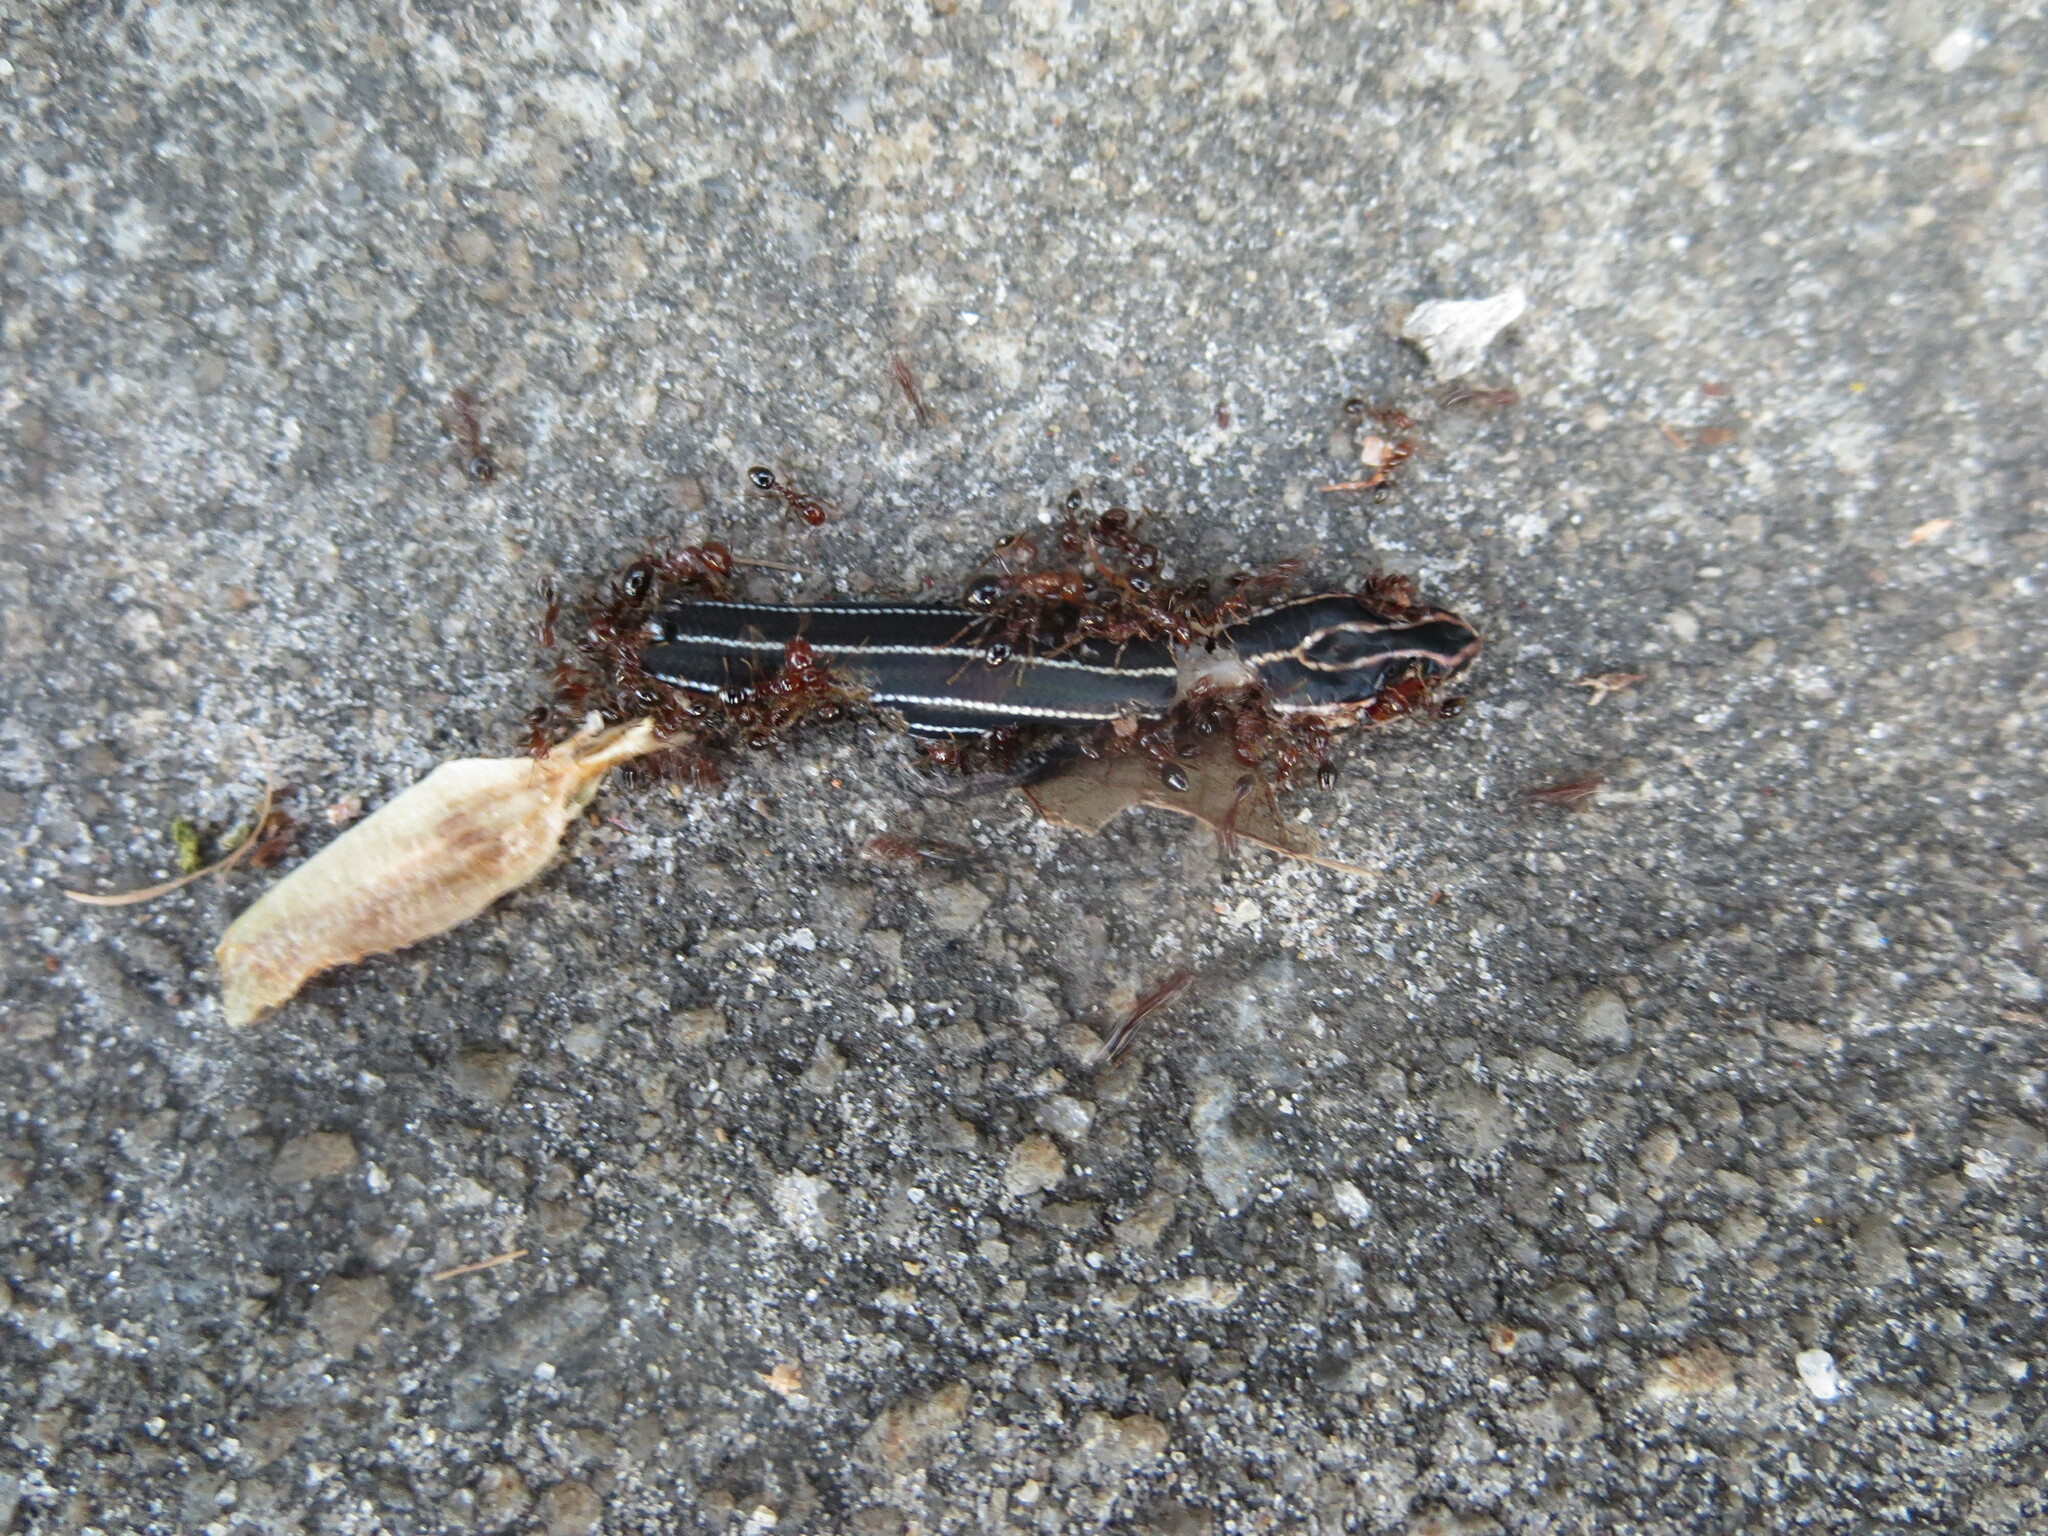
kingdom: Animalia
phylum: Chordata
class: Squamata
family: Scincidae
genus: Plestiodon
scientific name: Plestiodon inexpectatus
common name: Southeastern five-lined skink
